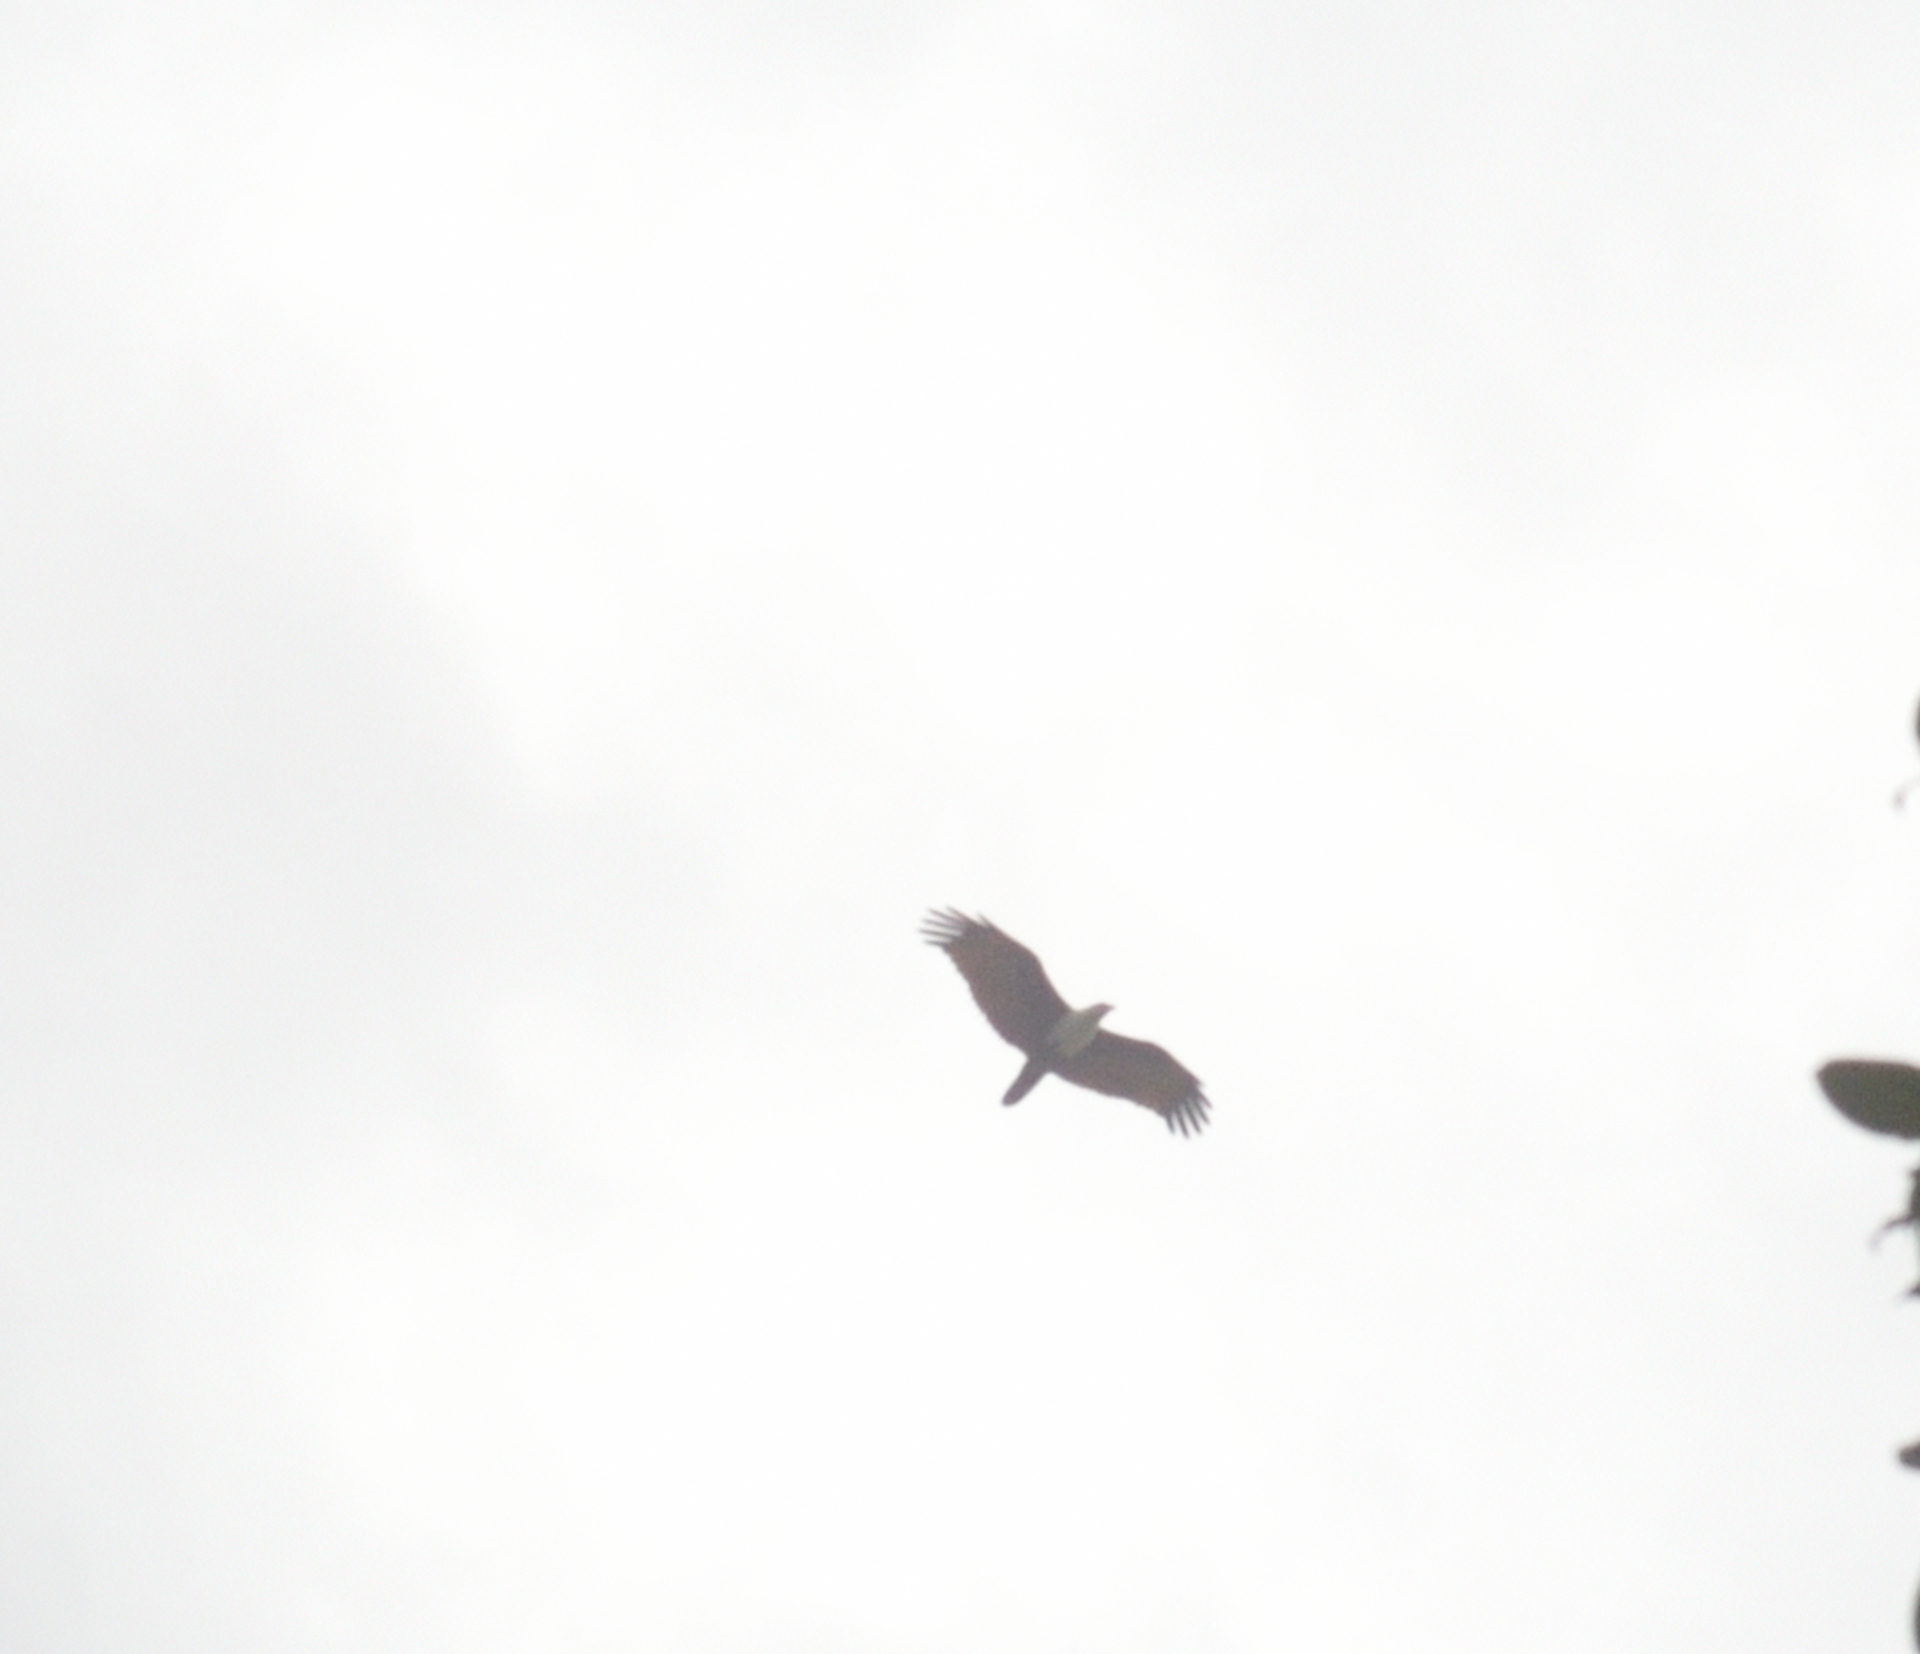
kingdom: Animalia
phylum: Chordata
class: Aves
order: Accipitriformes
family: Accipitridae
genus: Haliastur
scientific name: Haliastur indus
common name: Brahminy kite
